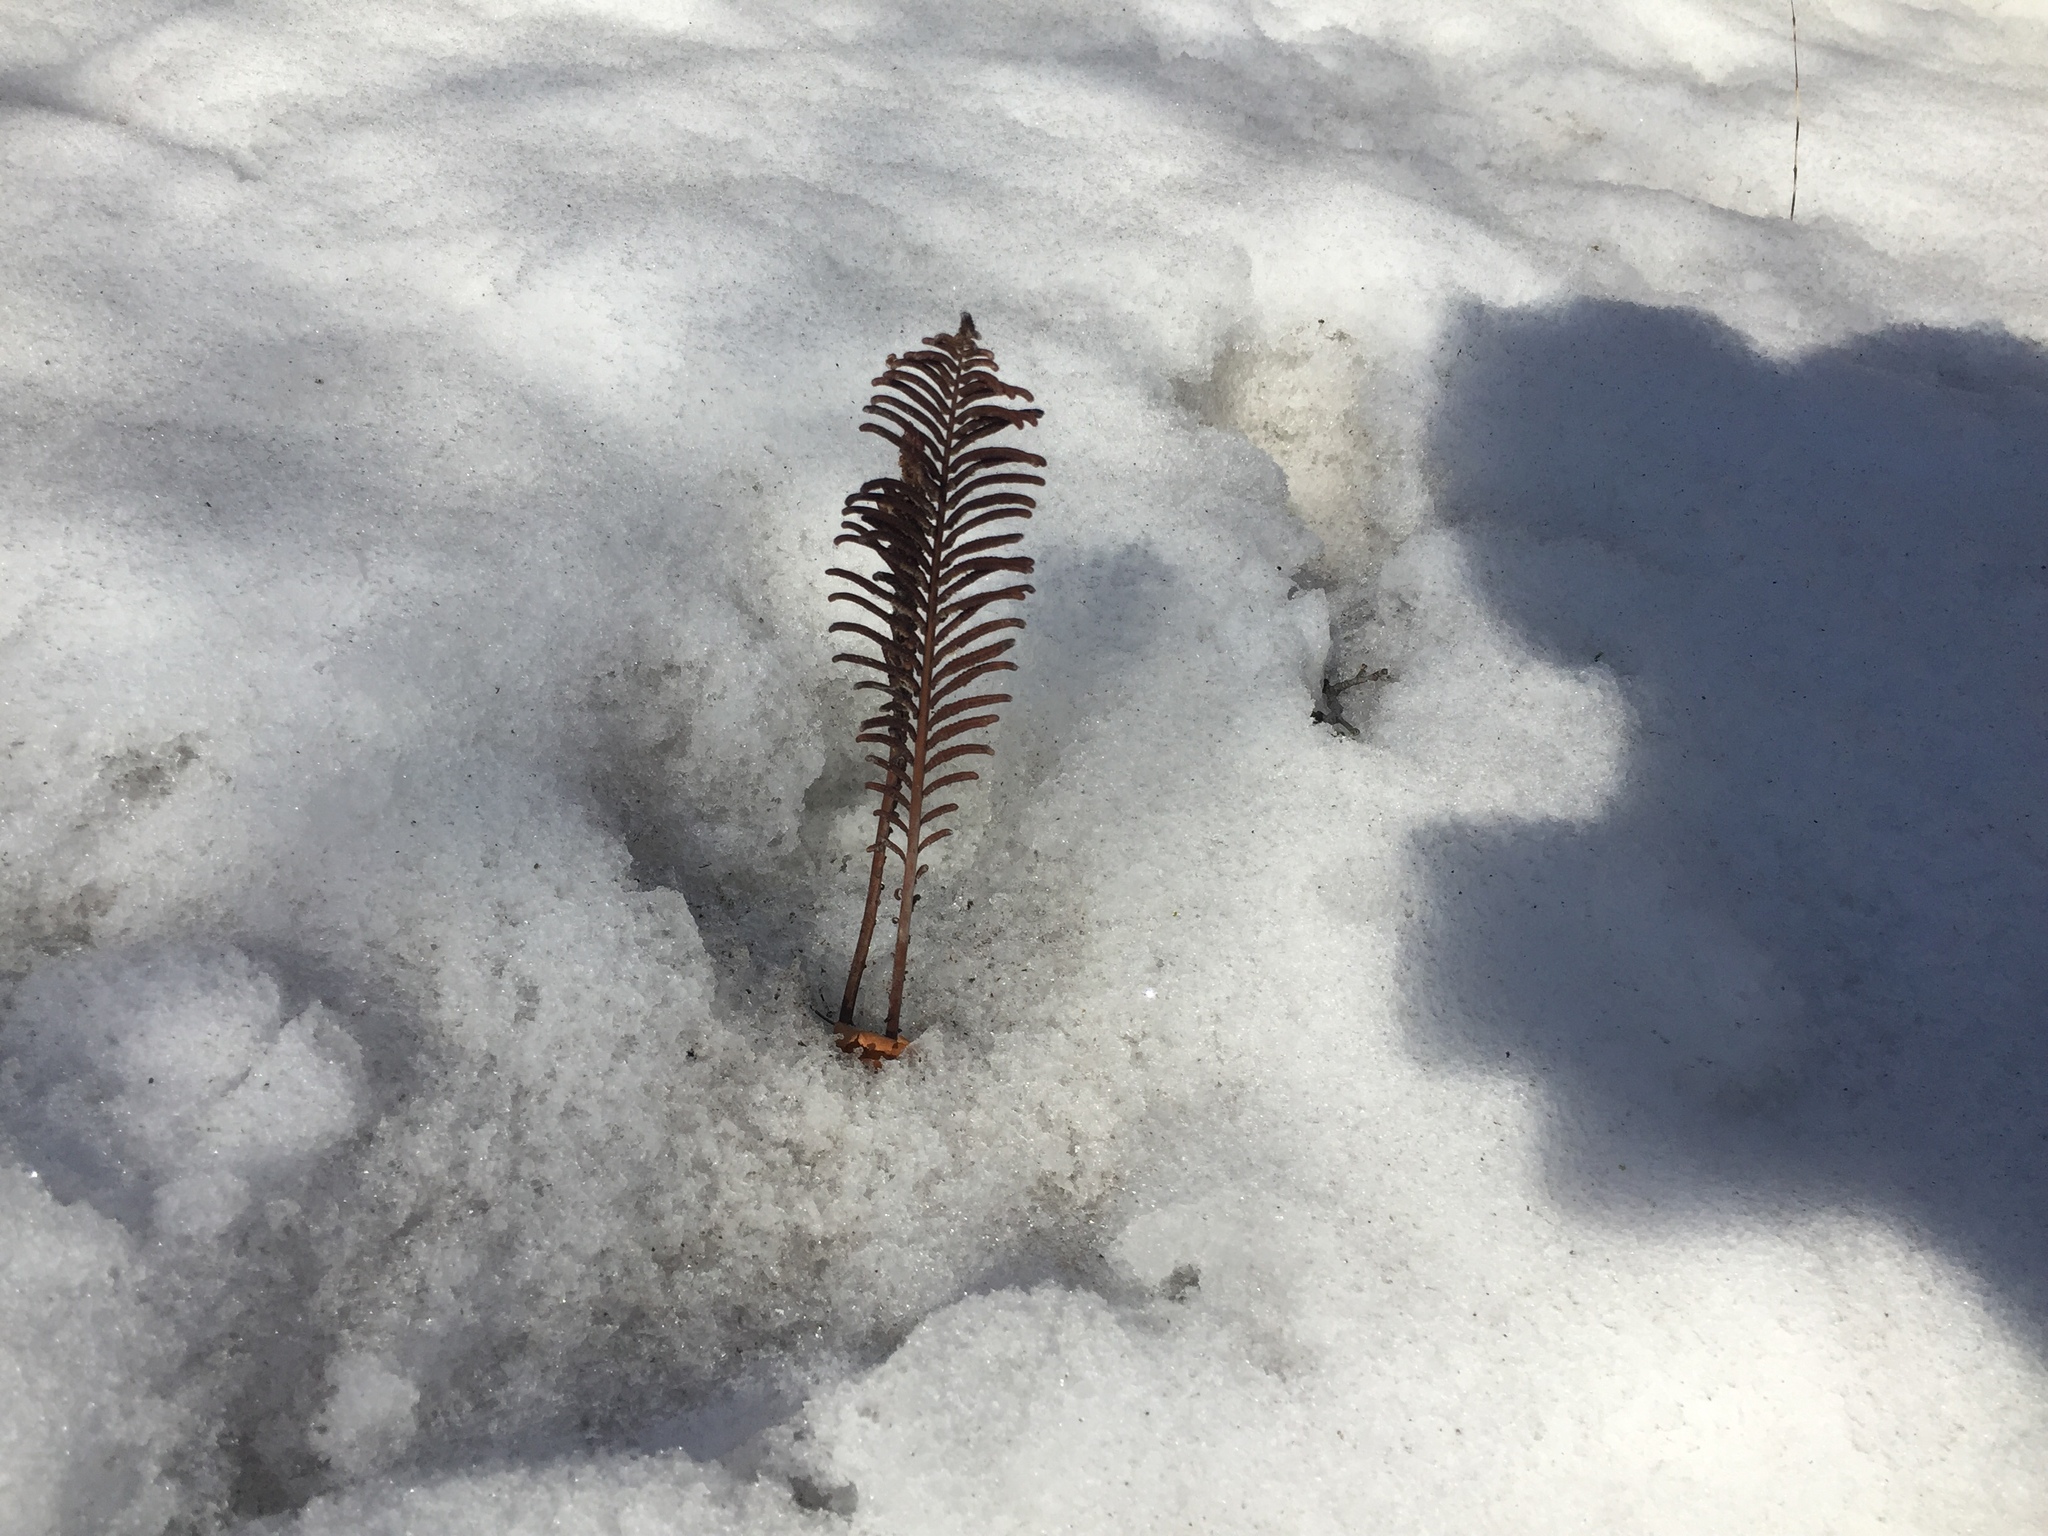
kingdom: Plantae
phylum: Tracheophyta
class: Polypodiopsida
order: Polypodiales
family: Onocleaceae
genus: Matteuccia
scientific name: Matteuccia struthiopteris
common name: Ostrich fern
